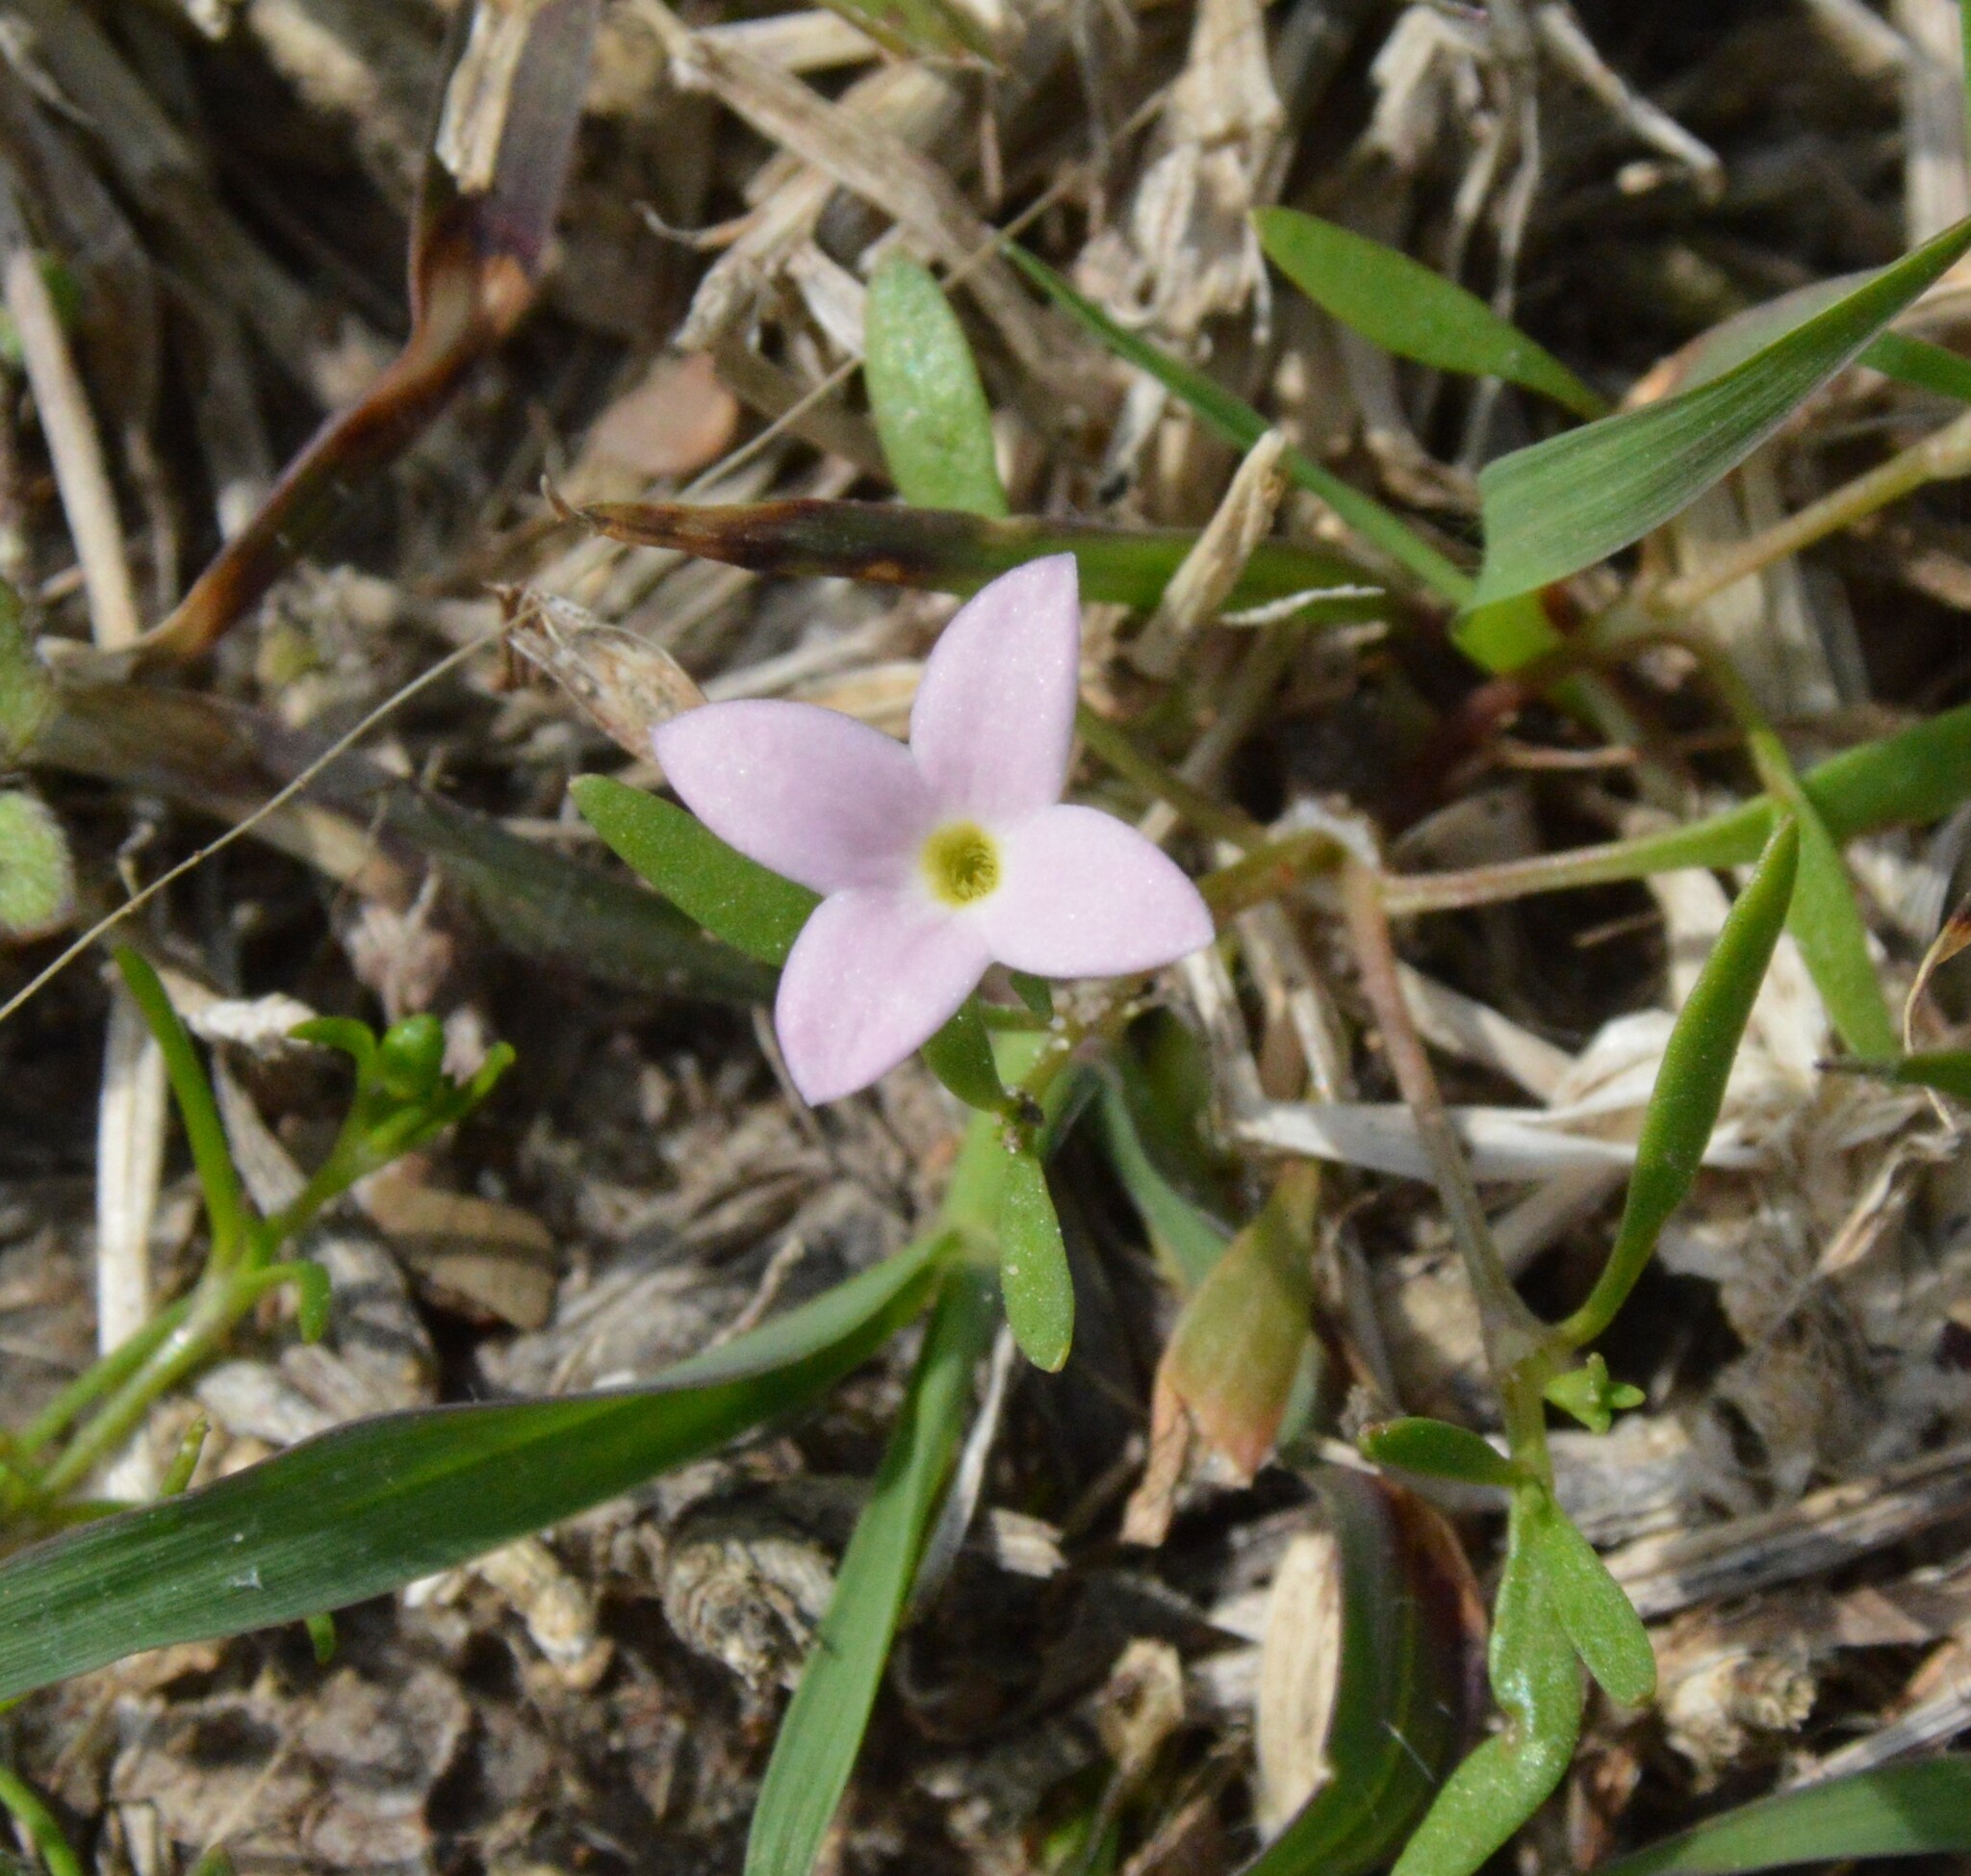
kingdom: Plantae
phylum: Tracheophyta
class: Magnoliopsida
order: Gentianales
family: Rubiaceae
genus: Houstonia
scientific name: Houstonia rosea
